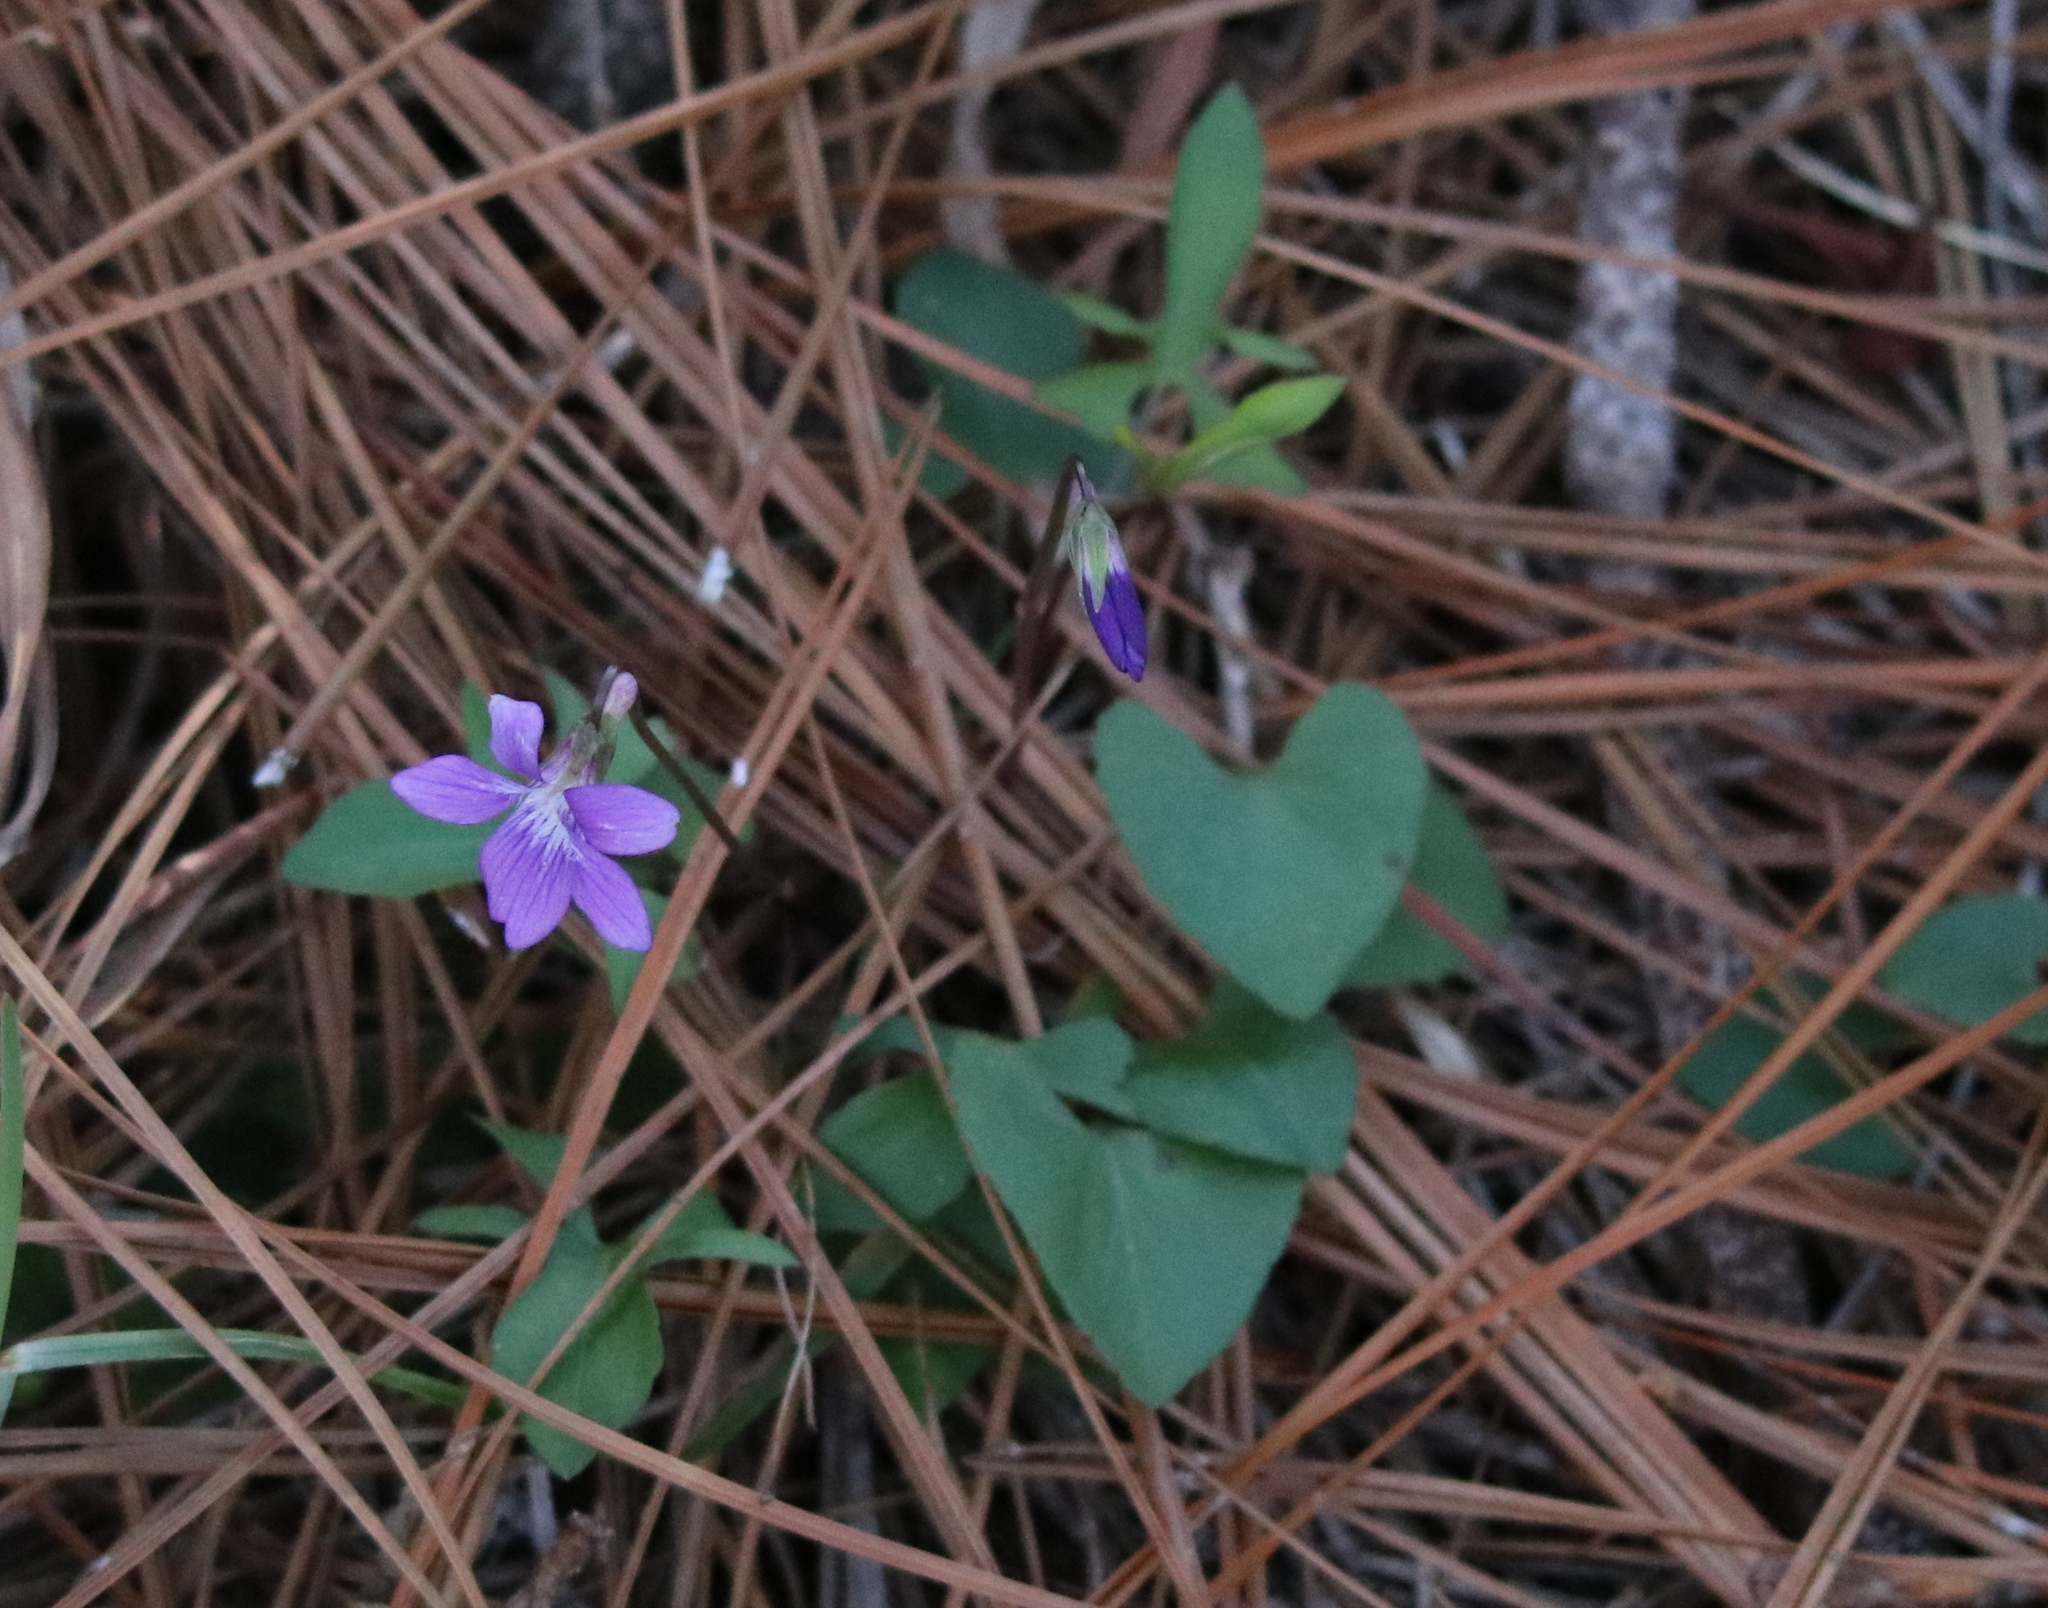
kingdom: Plantae
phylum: Tracheophyta
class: Magnoliopsida
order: Malpighiales
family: Violaceae
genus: Viola
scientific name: Viola septemloba
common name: Southern coast violet
